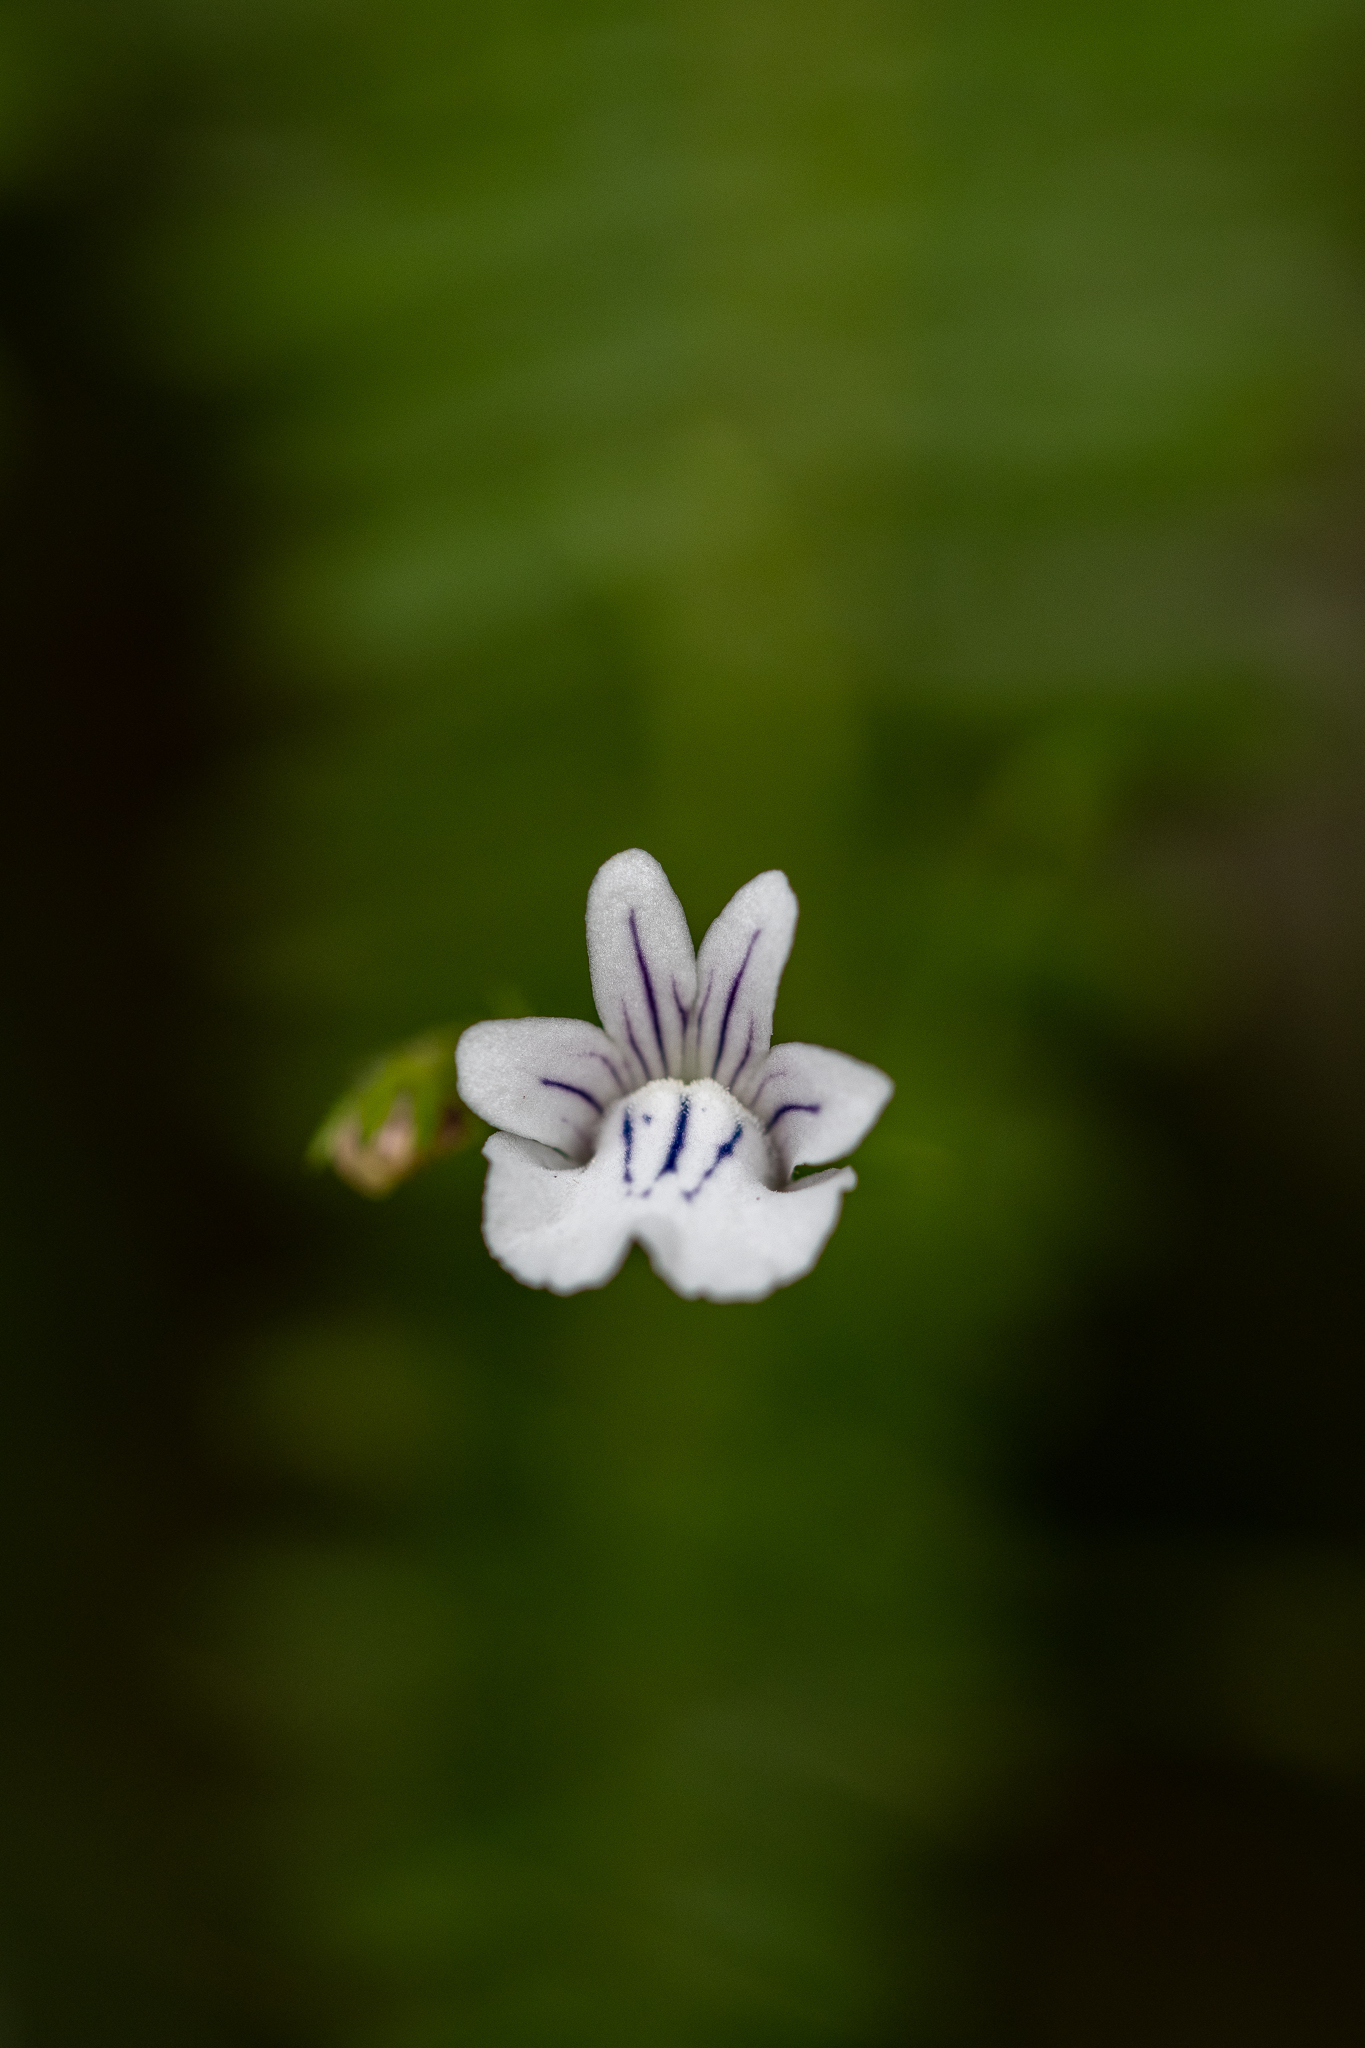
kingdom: Plantae
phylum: Tracheophyta
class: Magnoliopsida
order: Lamiales
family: Scrophulariaceae
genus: Nemesia
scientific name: Nemesia diffusa
